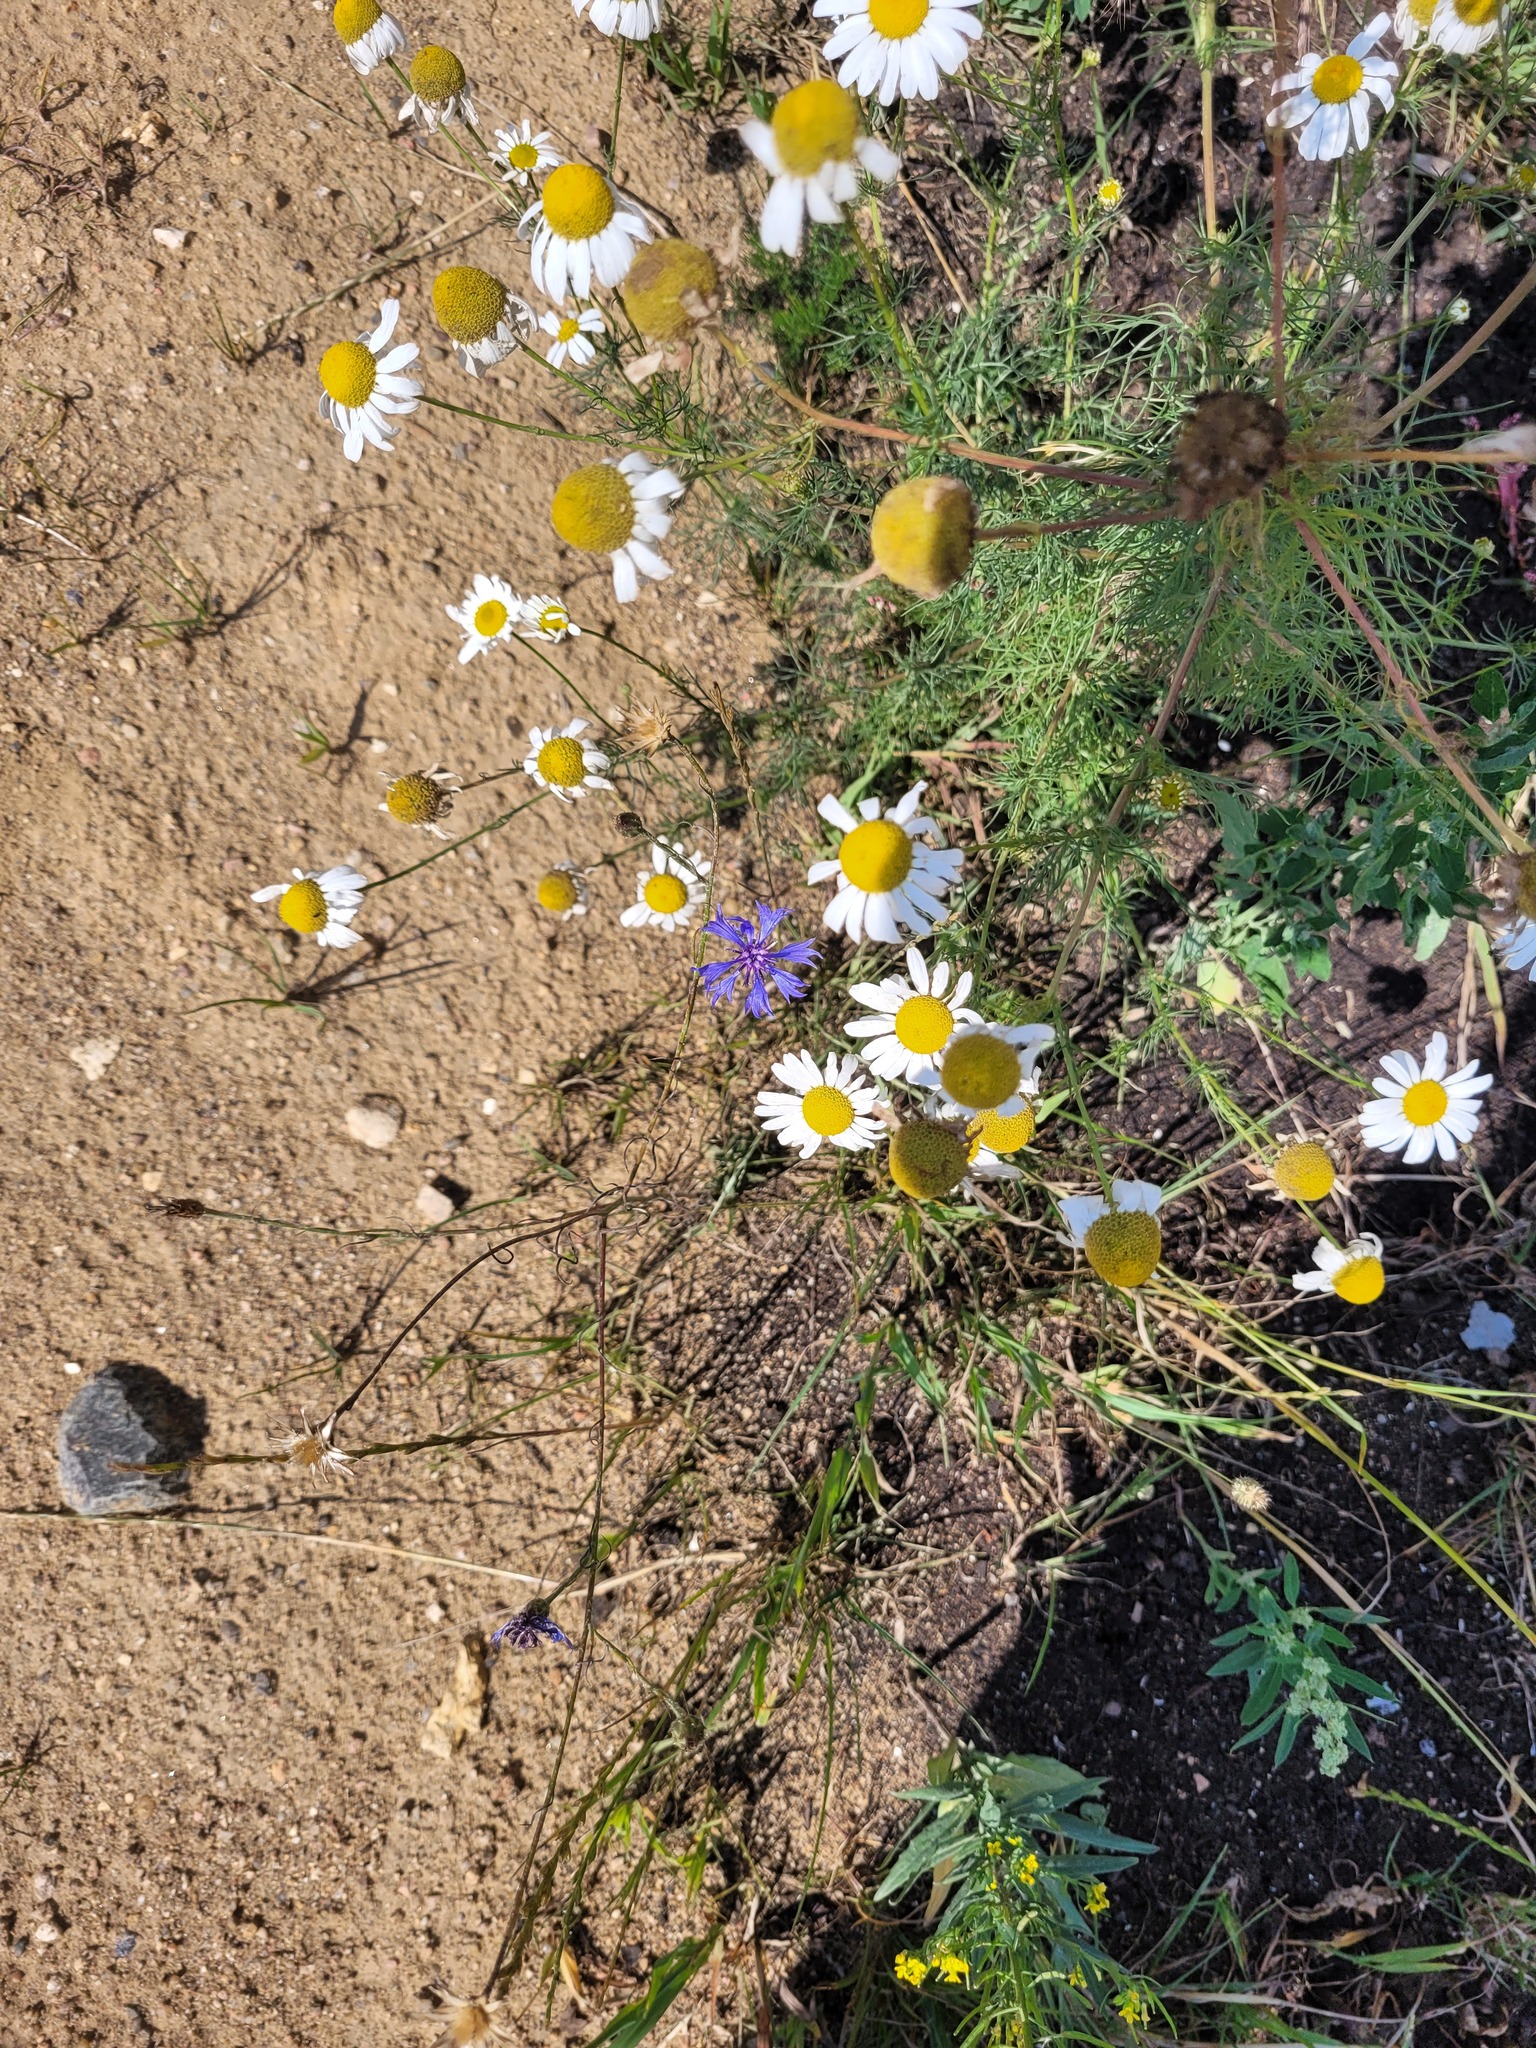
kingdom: Plantae
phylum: Tracheophyta
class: Magnoliopsida
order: Asterales
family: Asteraceae
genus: Centaurea
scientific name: Centaurea cyanus
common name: Cornflower
